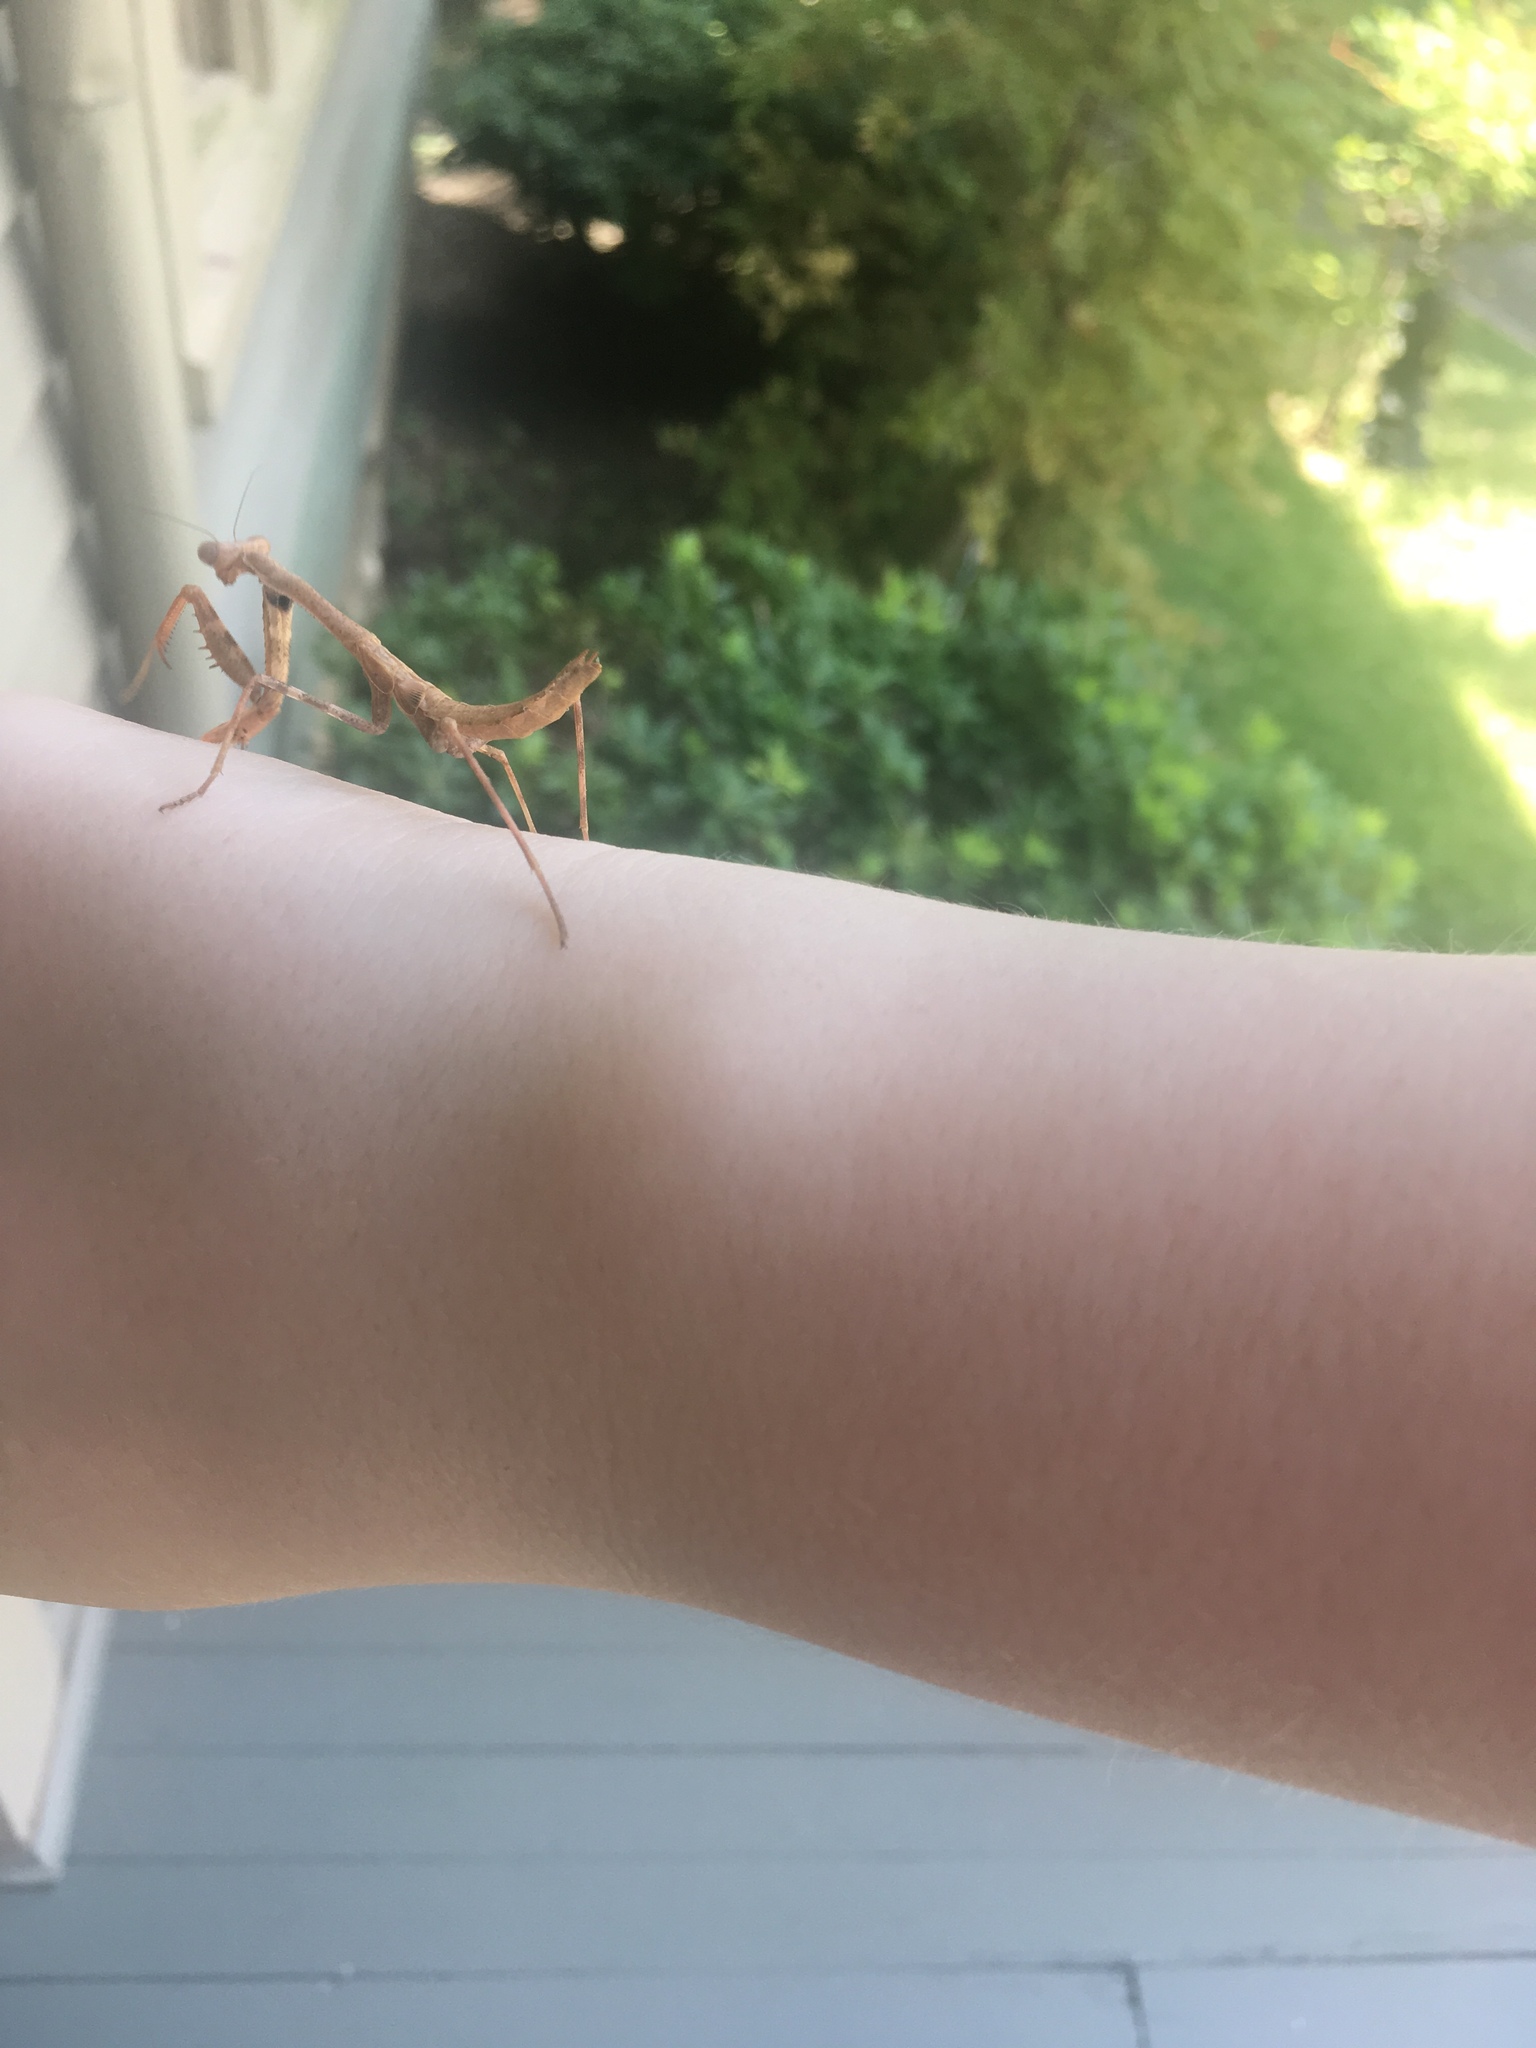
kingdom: Animalia
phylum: Arthropoda
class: Insecta
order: Mantodea
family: Mantidae
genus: Stagmomantis
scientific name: Stagmomantis carolina
